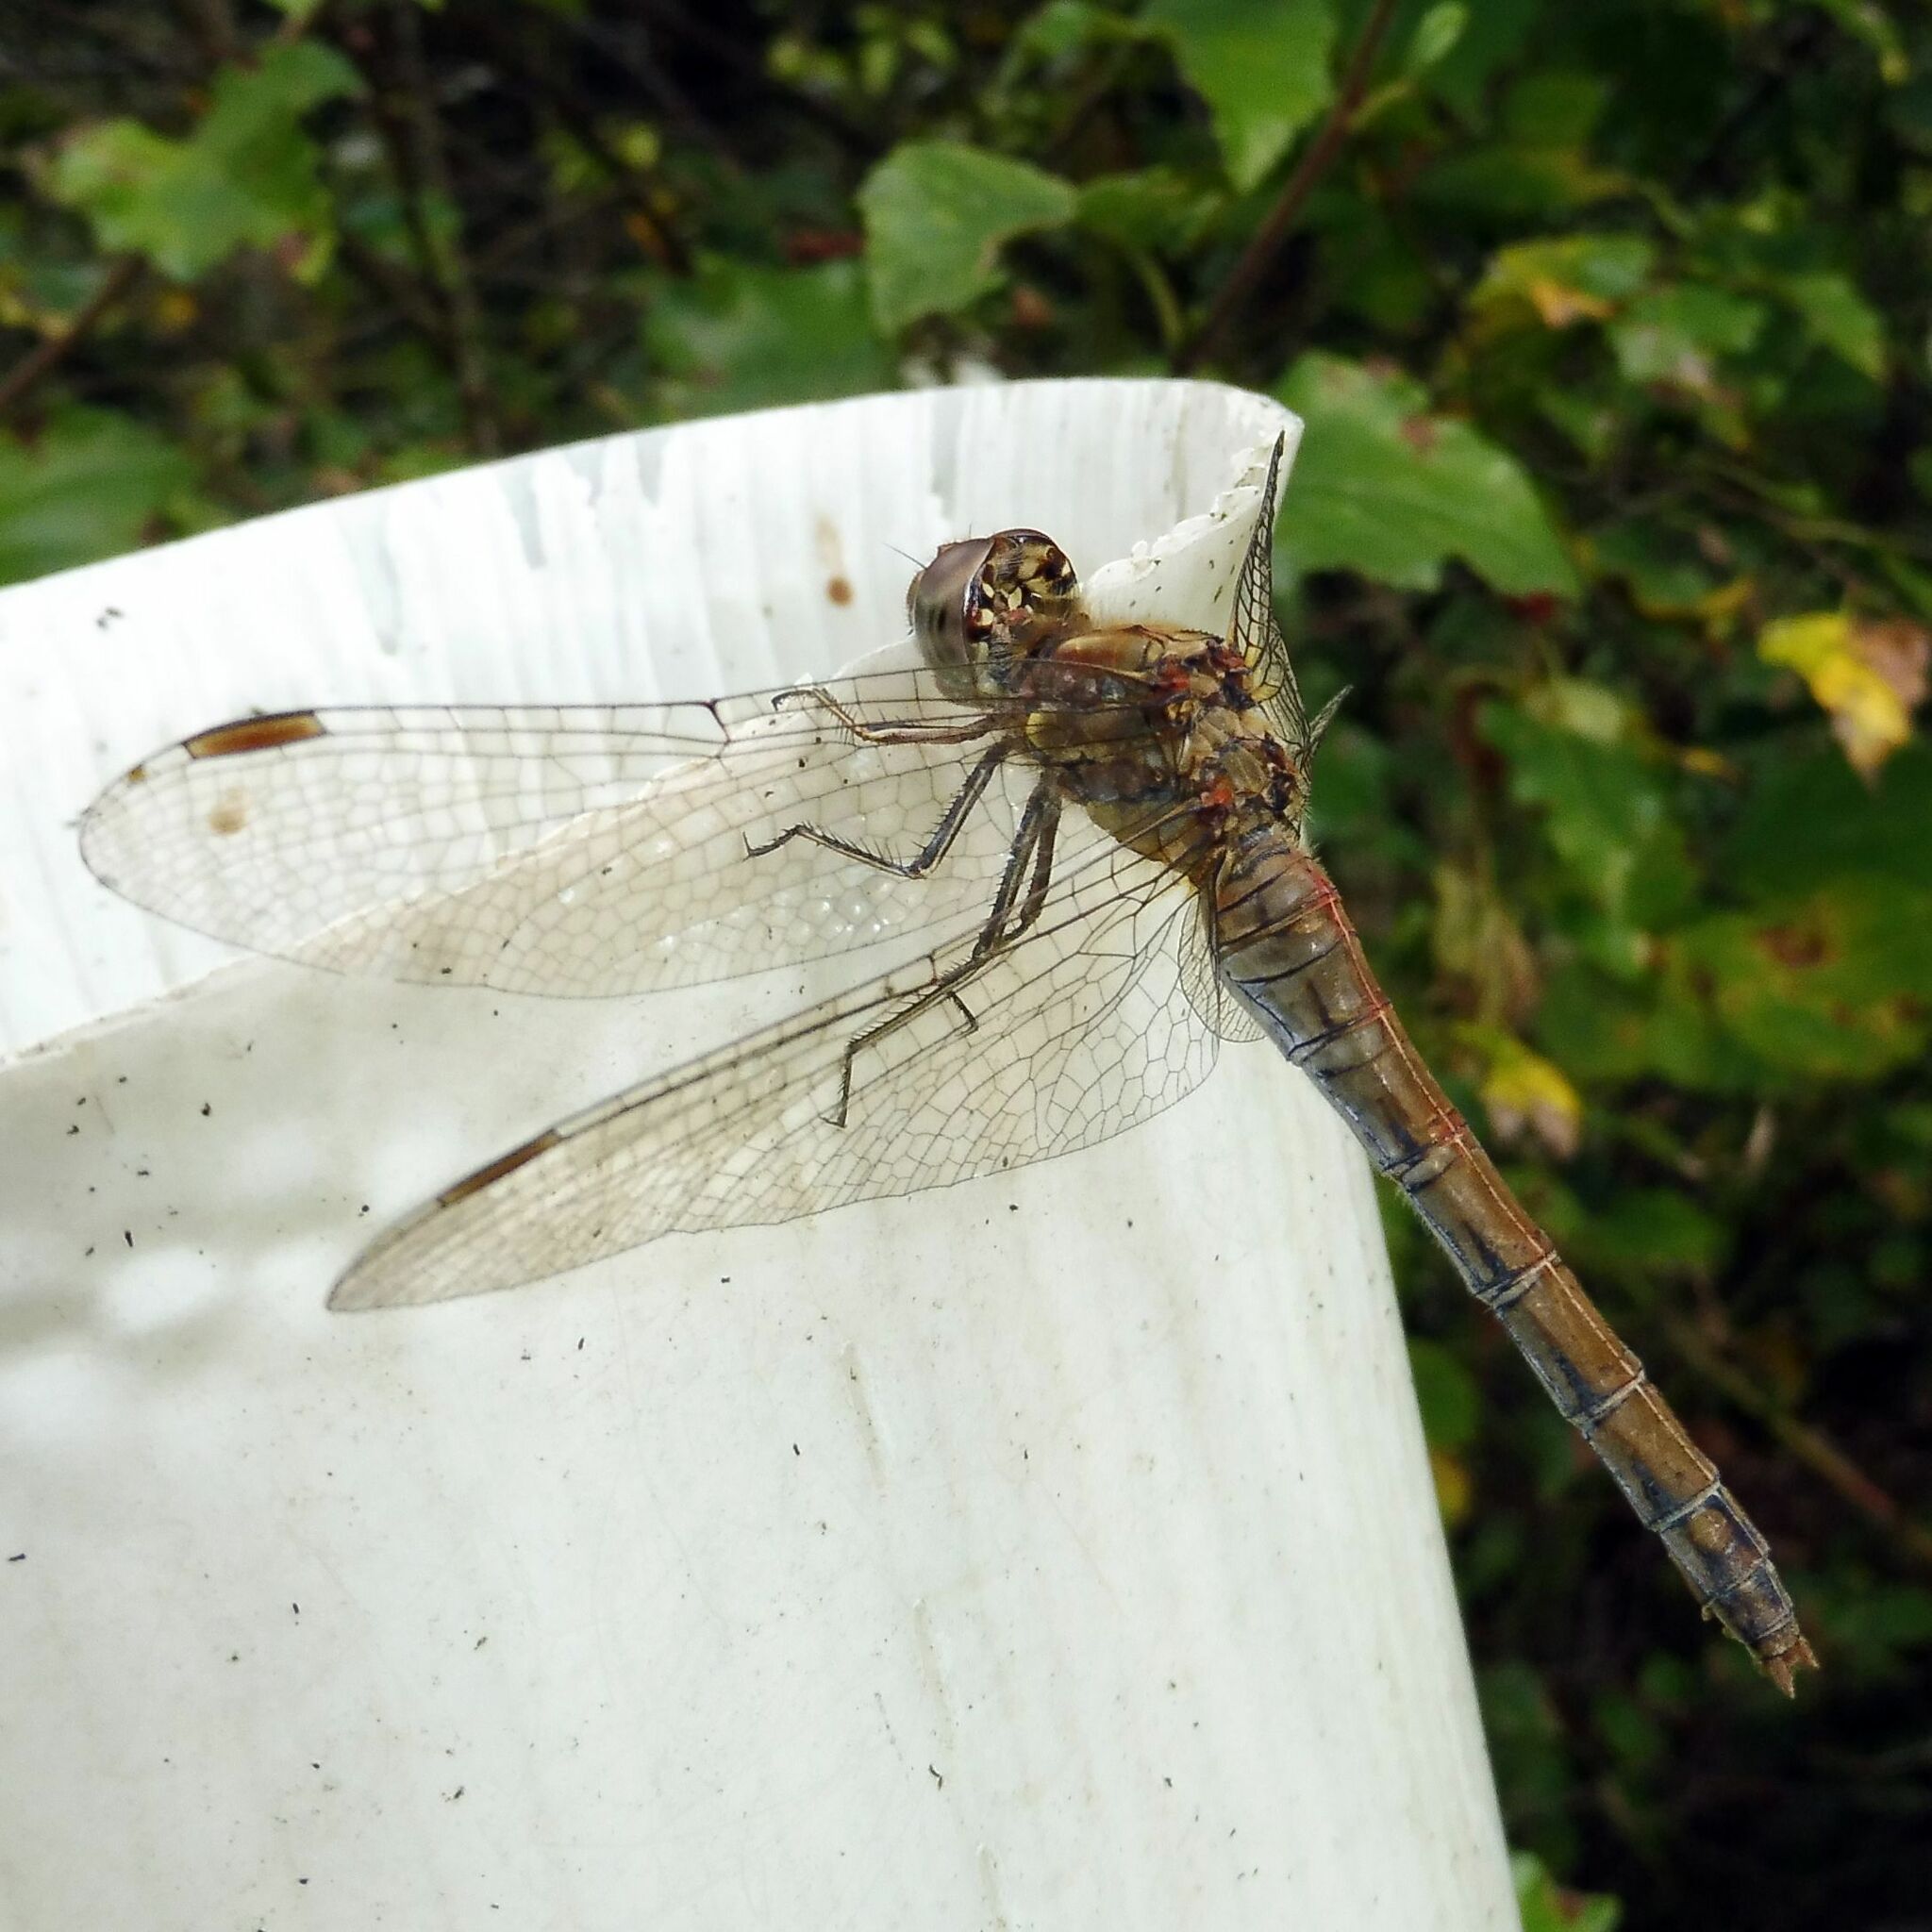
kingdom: Animalia
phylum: Arthropoda
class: Insecta
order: Odonata
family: Libellulidae
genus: Sympetrum
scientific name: Sympetrum striolatum
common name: Common darter
